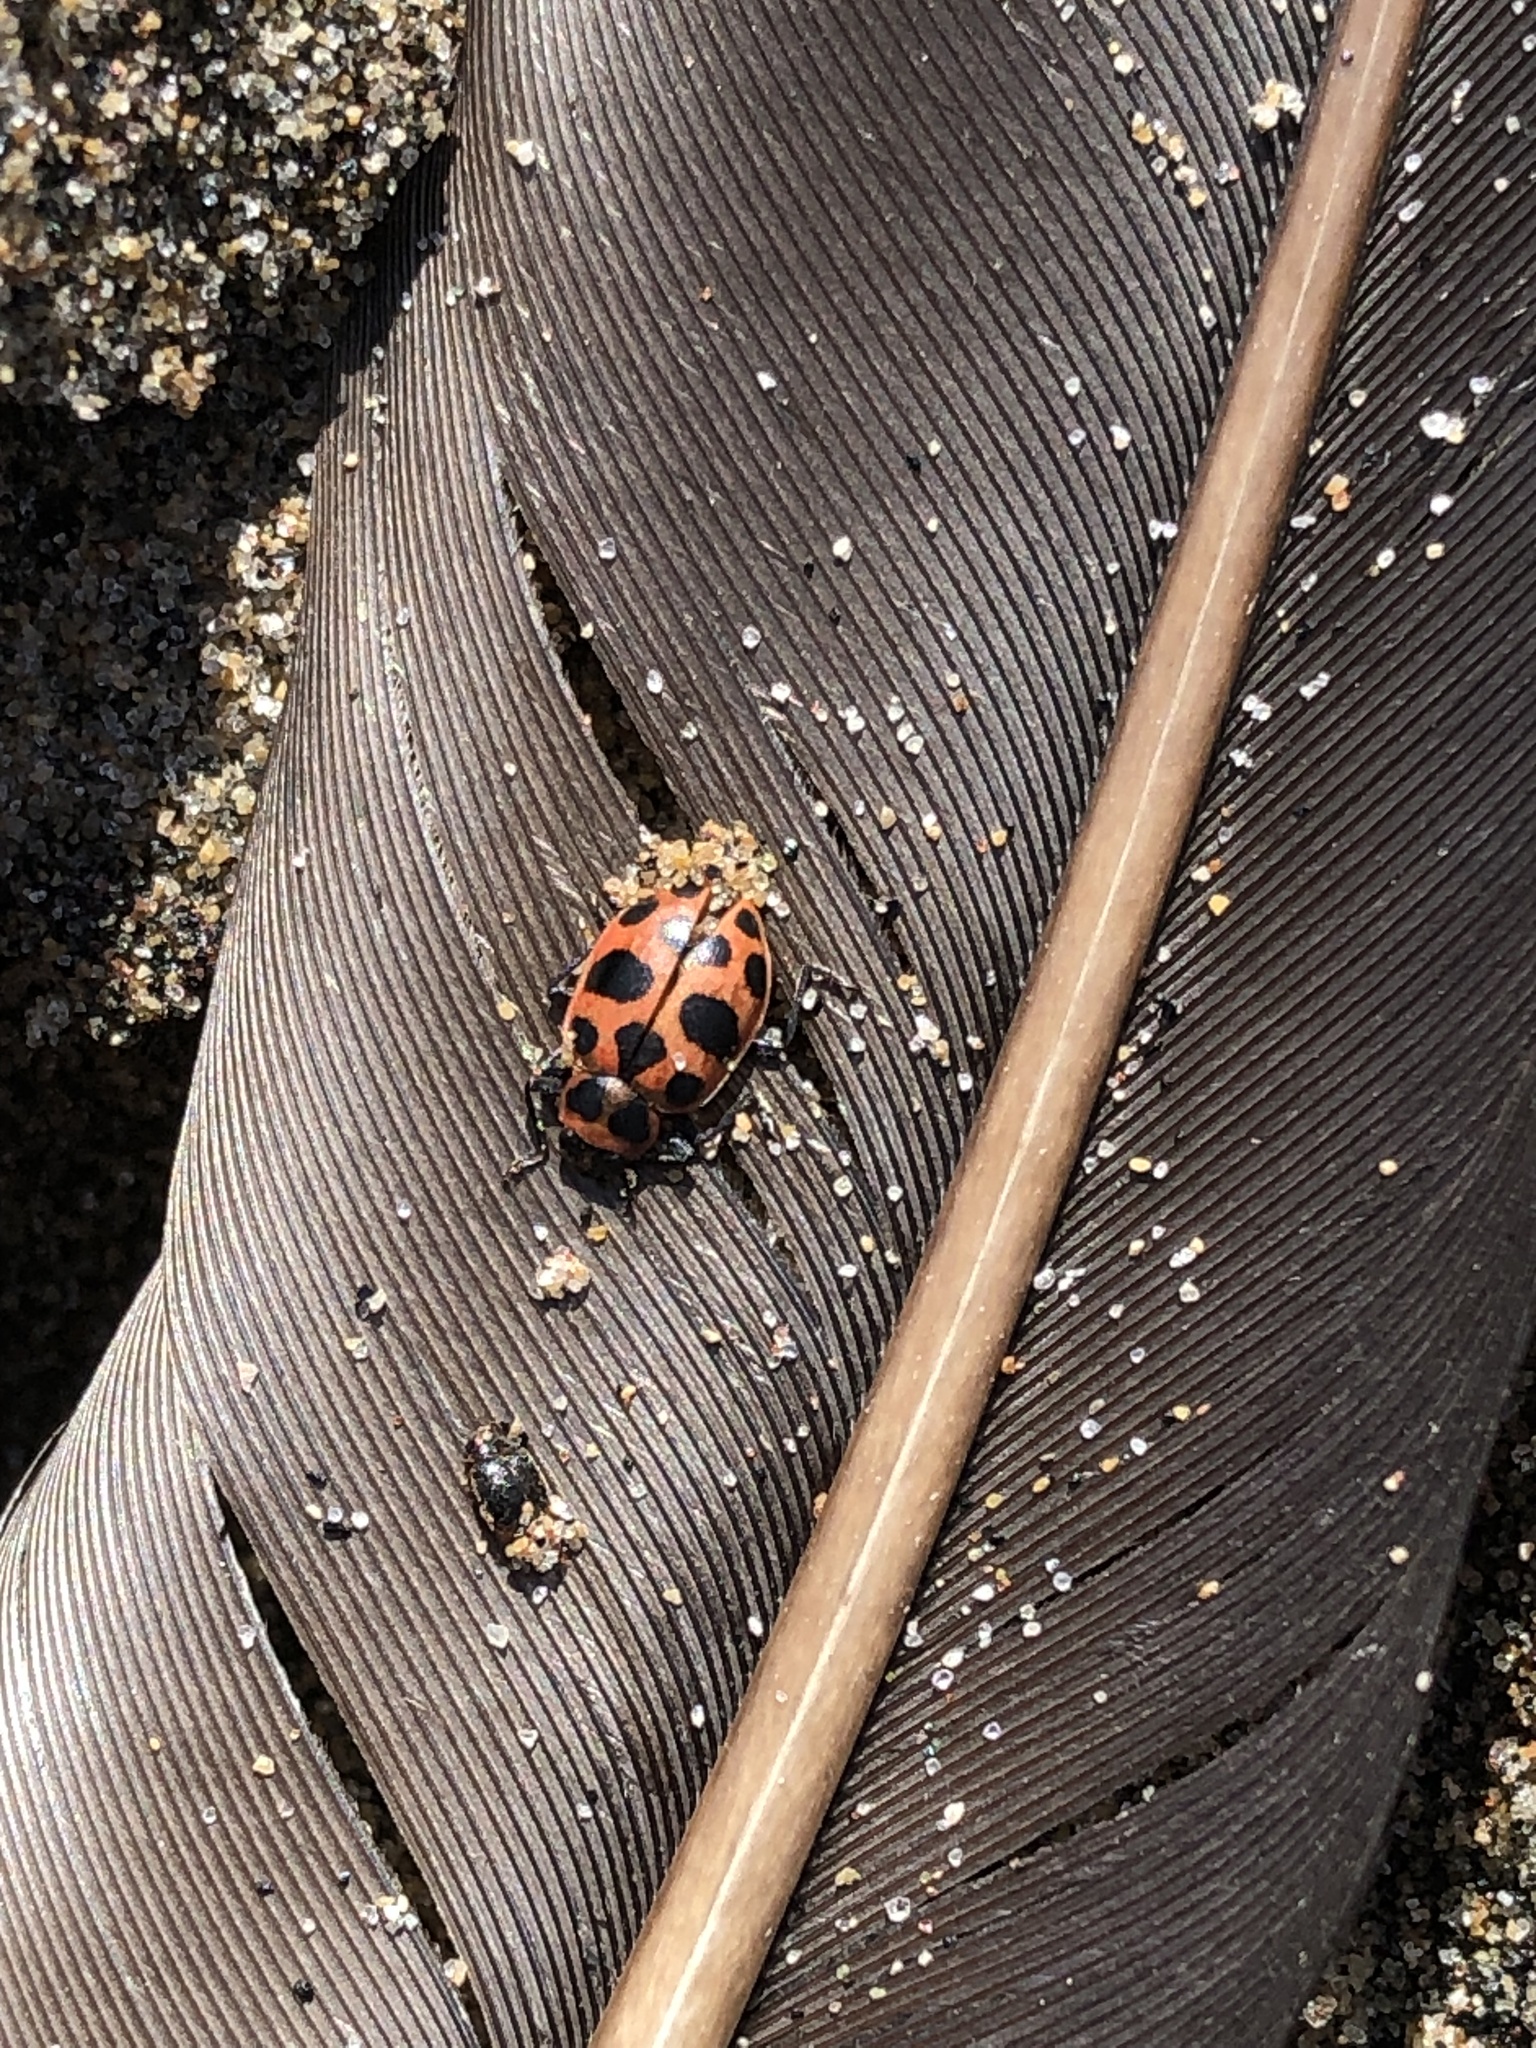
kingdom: Animalia
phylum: Arthropoda
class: Insecta
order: Coleoptera
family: Coccinellidae
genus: Coleomegilla
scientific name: Coleomegilla maculata
